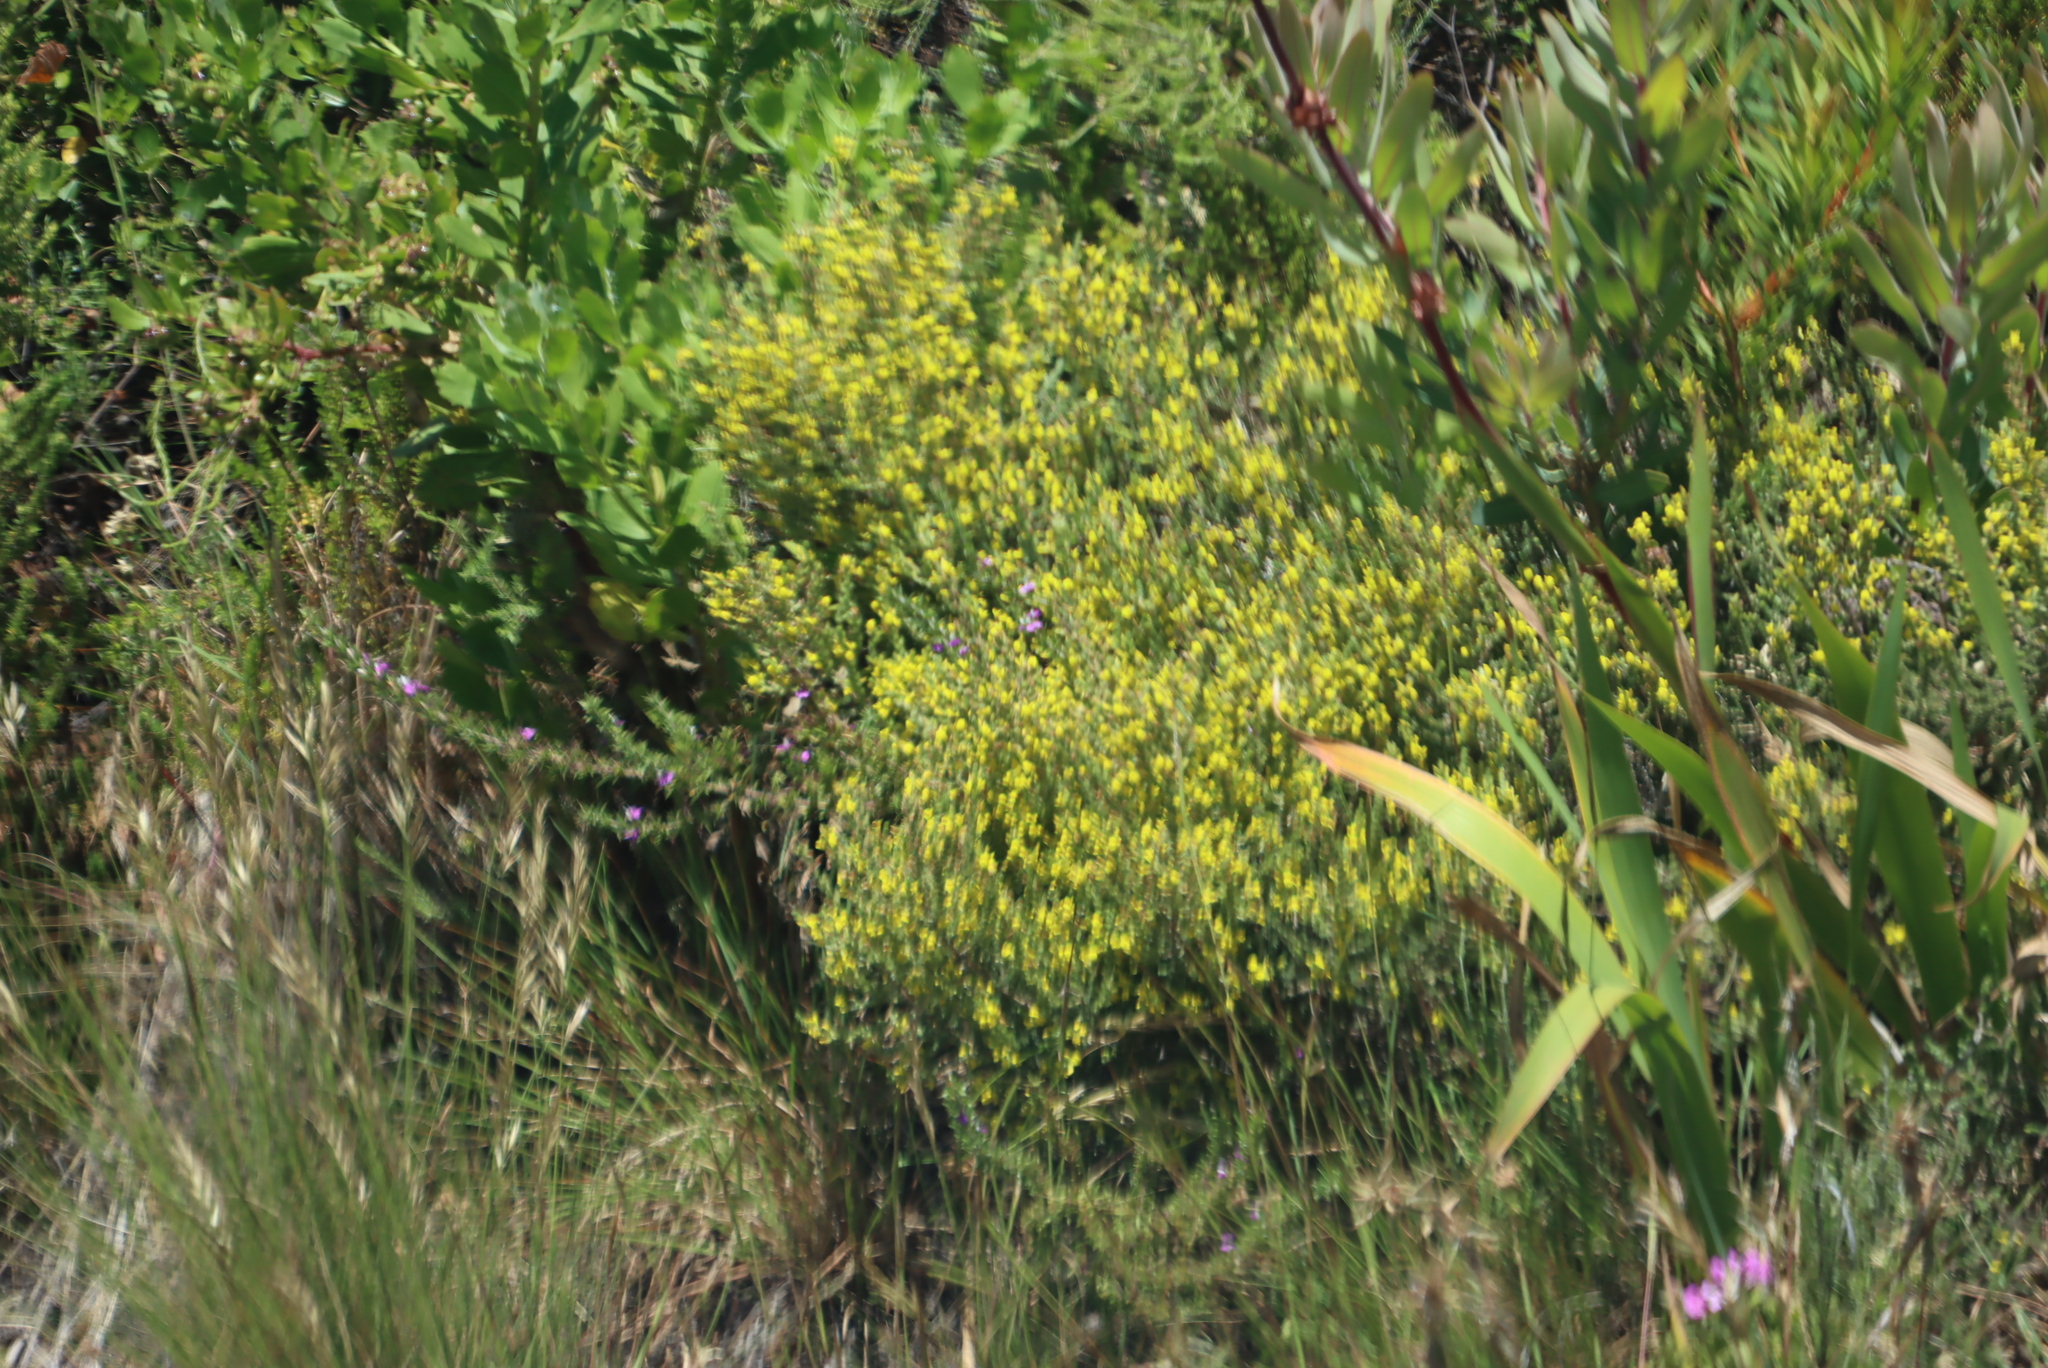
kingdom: Plantae
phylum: Tracheophyta
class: Magnoliopsida
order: Fabales
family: Fabaceae
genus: Aspalathus
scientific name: Aspalathus ericifolia
